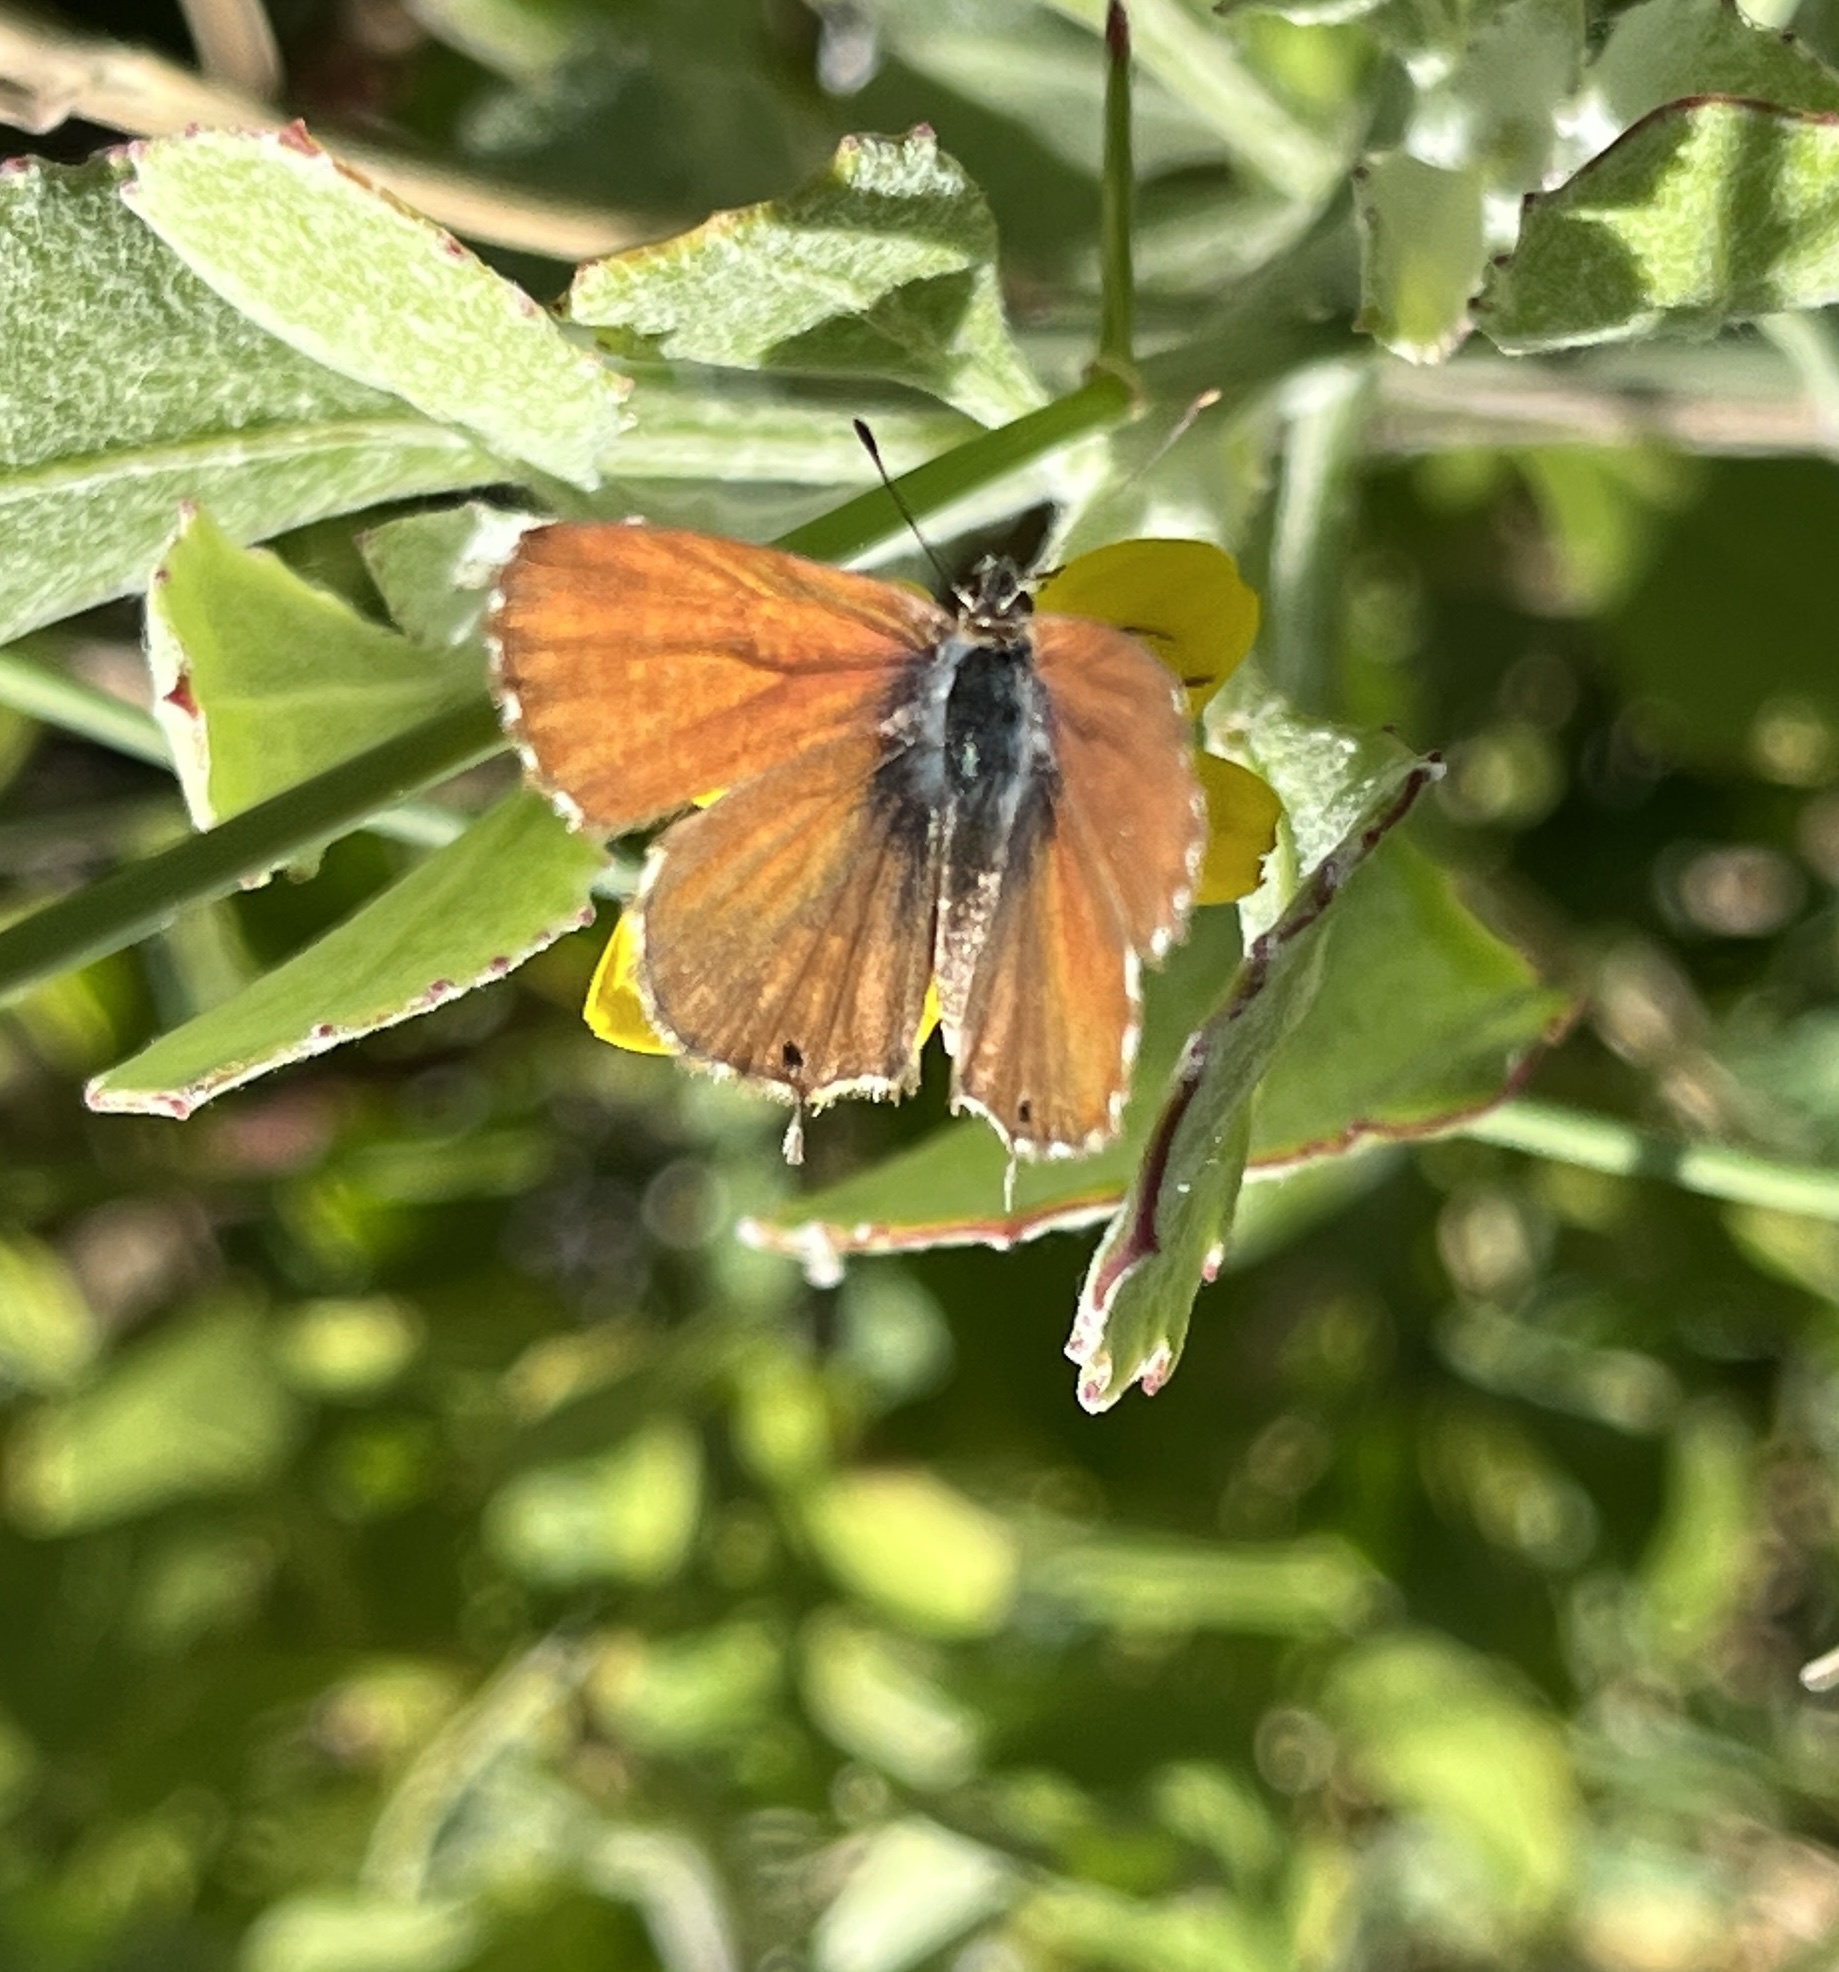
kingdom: Animalia
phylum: Arthropoda
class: Insecta
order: Lepidoptera
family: Lycaenidae
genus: Cacyreus
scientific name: Cacyreus fracta
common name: Water bronze
